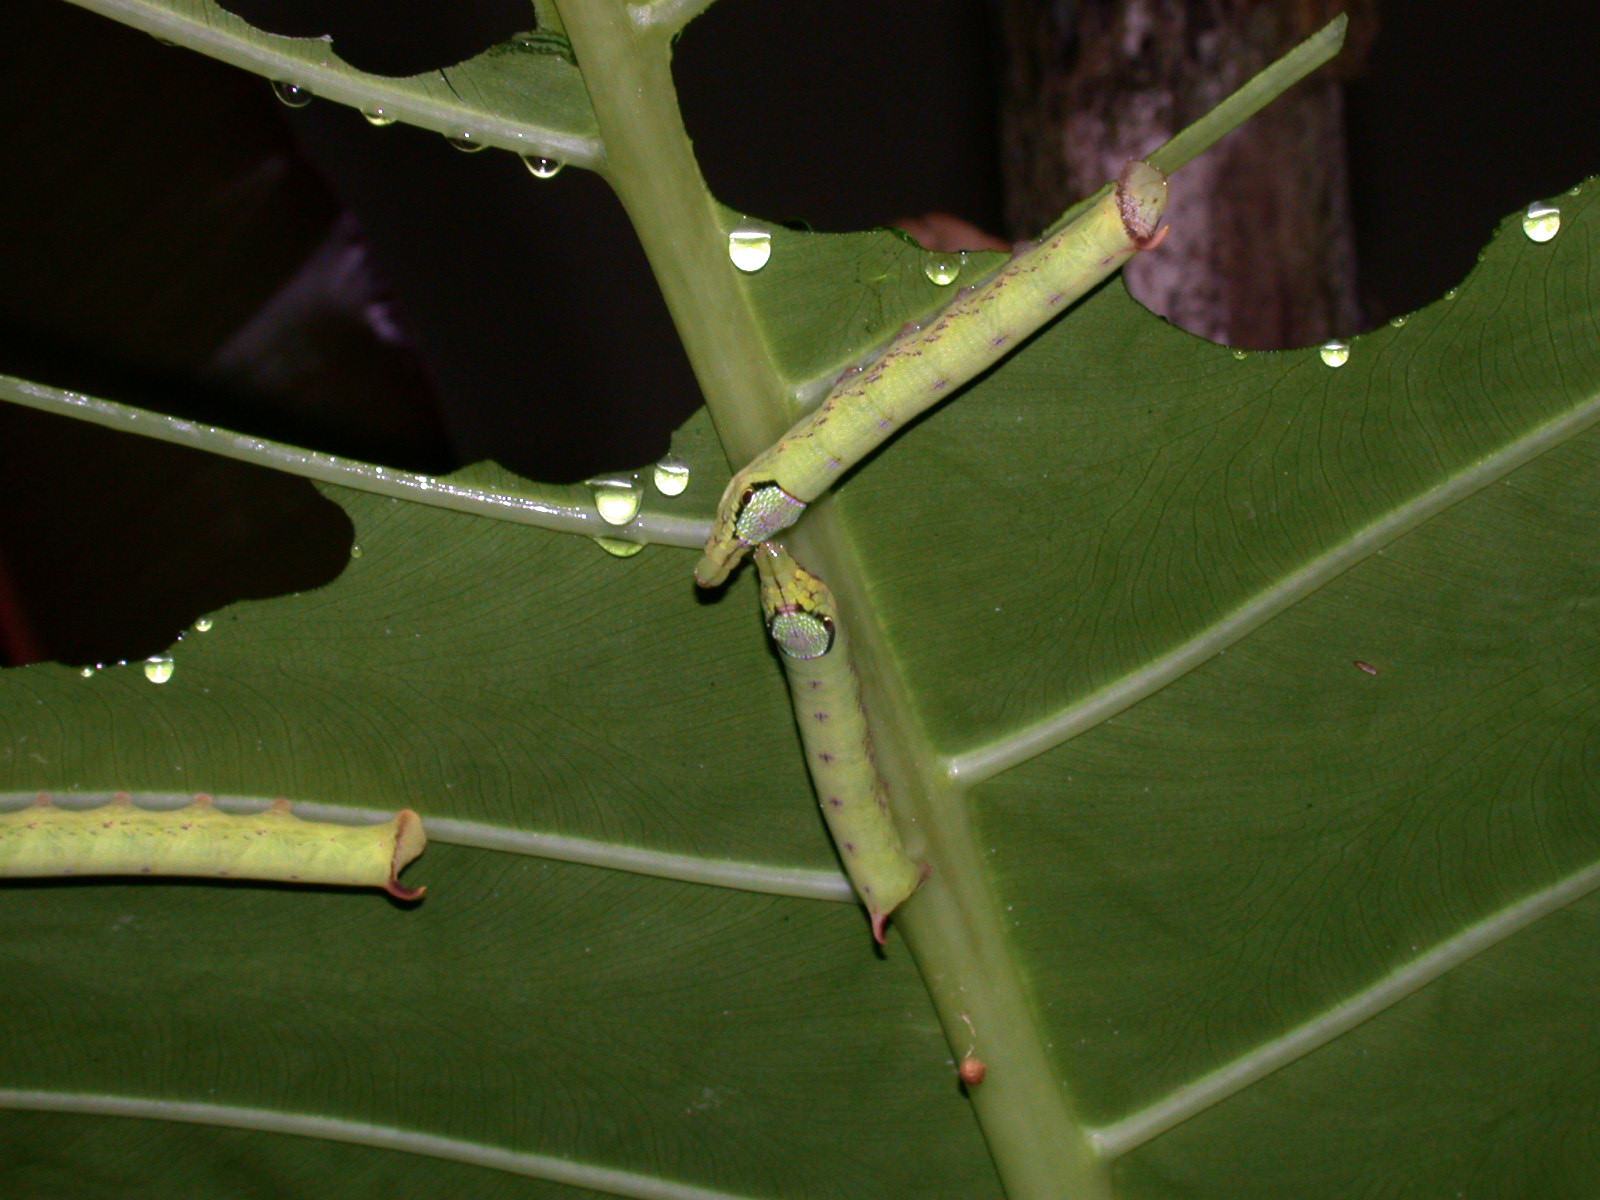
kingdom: Animalia
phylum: Arthropoda
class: Insecta
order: Lepidoptera
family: Sphingidae
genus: Eupanacra
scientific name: Eupanacra elegantulus
